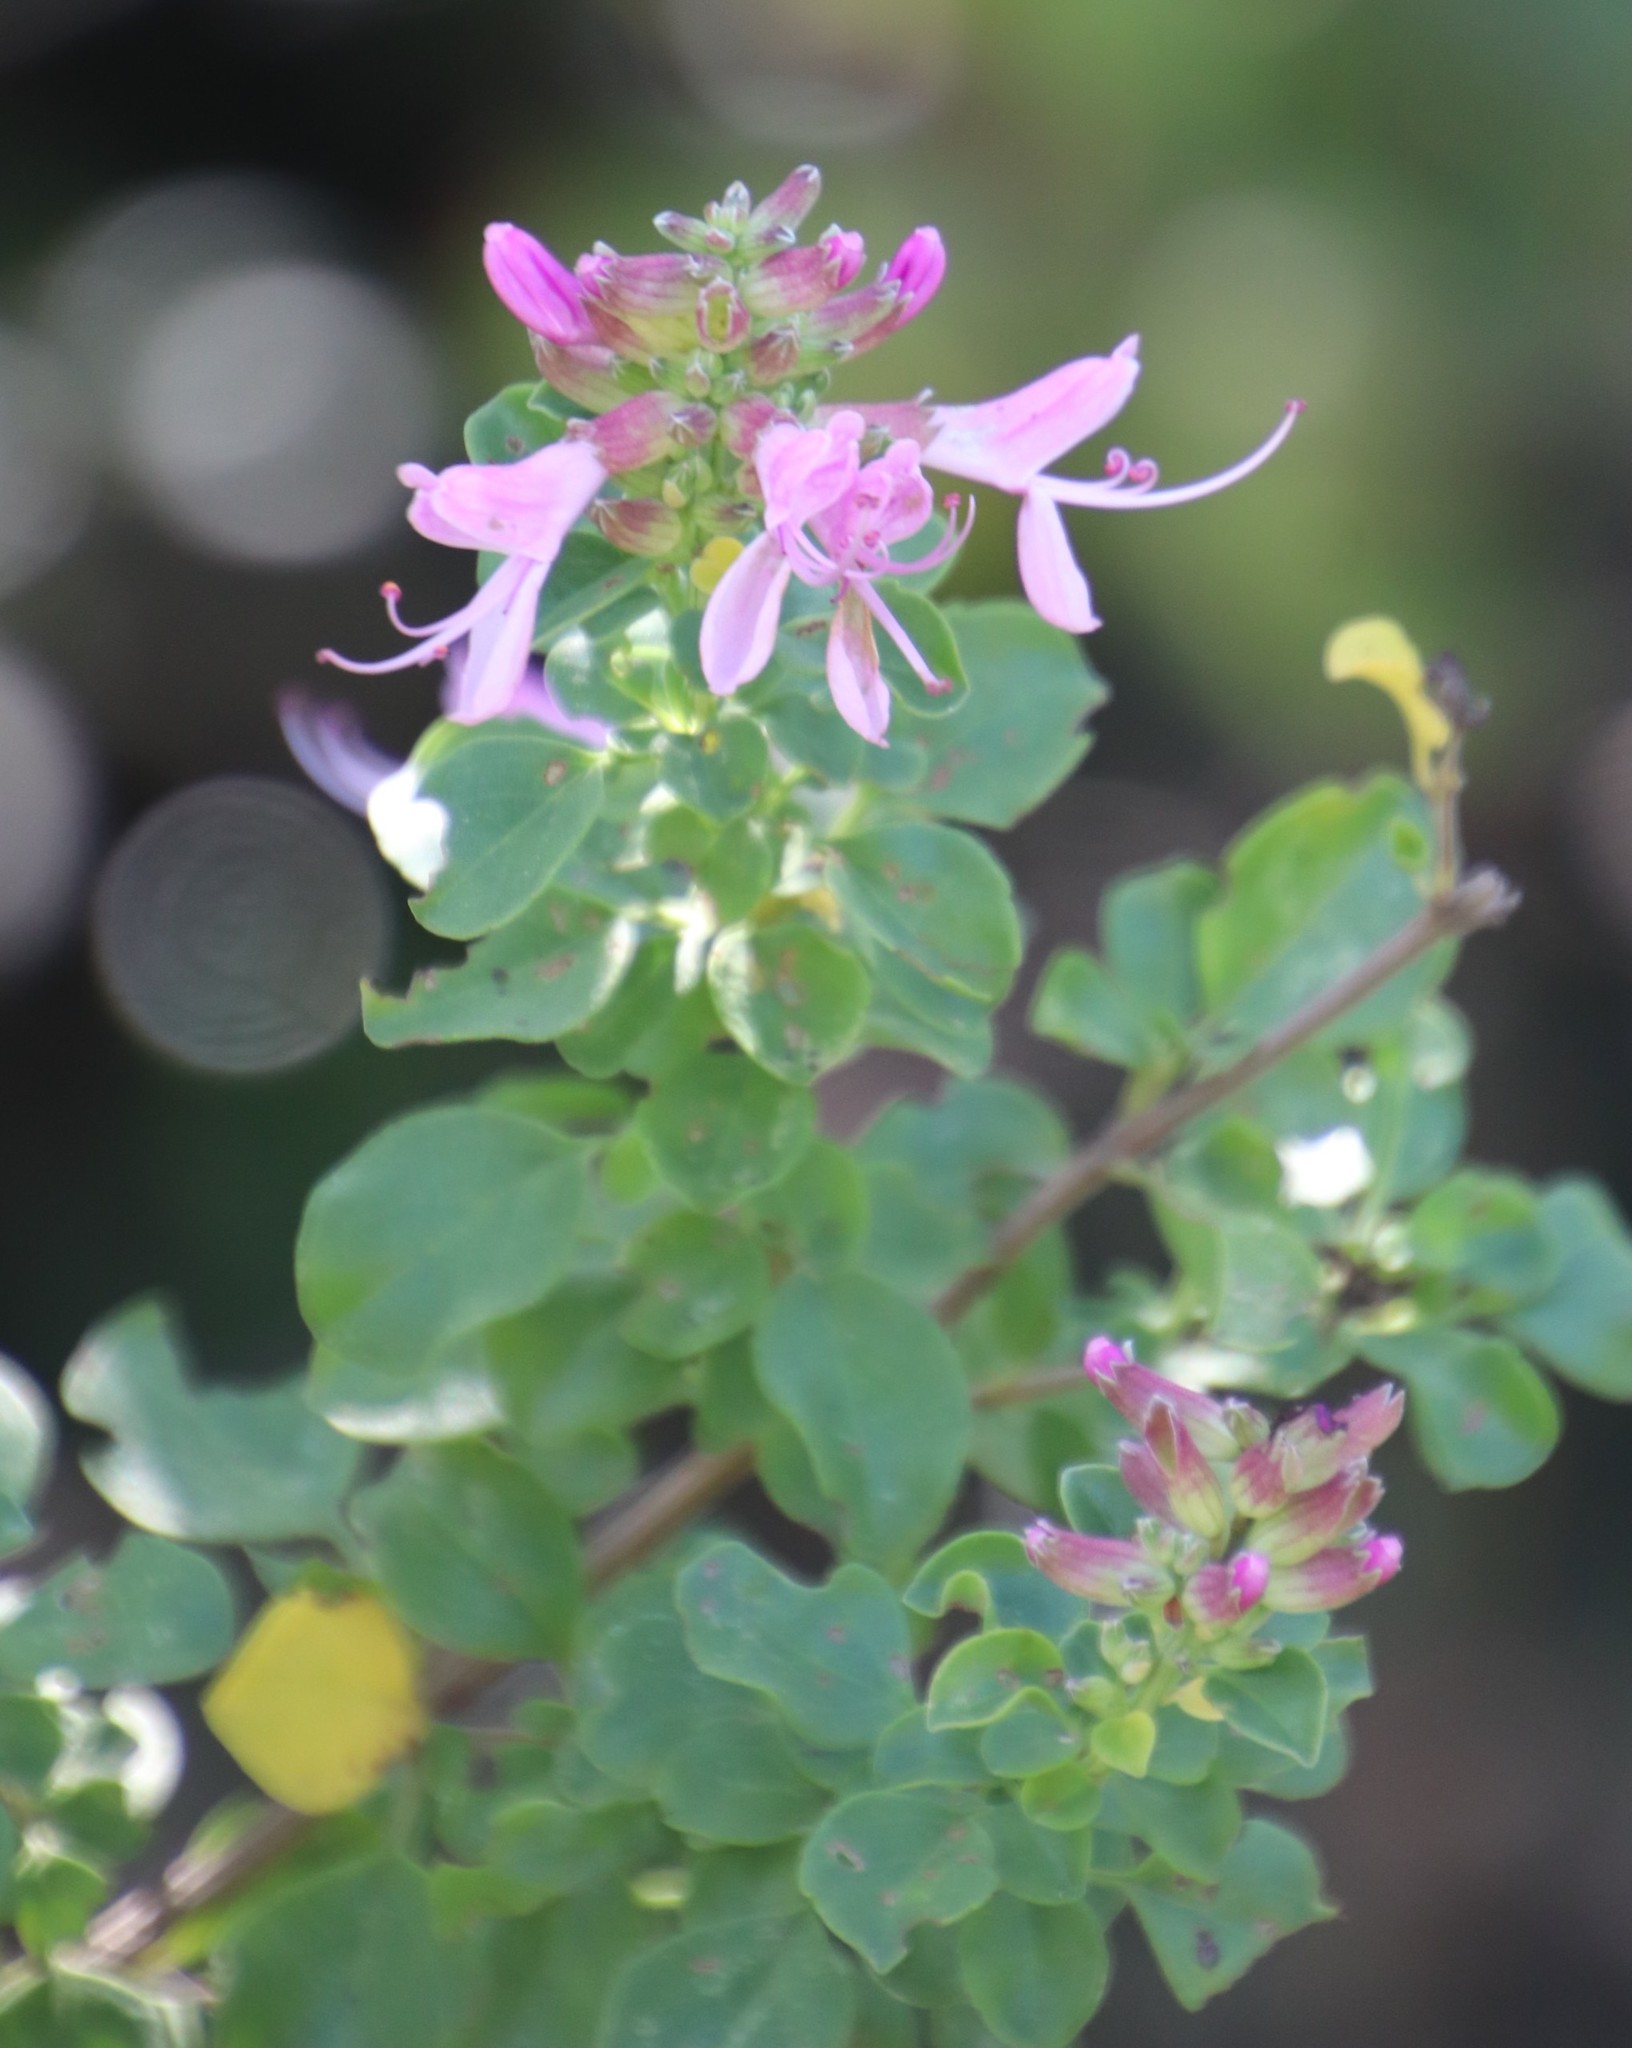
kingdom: Plantae
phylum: Tracheophyta
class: Magnoliopsida
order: Lamiales
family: Lamiaceae
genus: Syncolostemon
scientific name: Syncolostemon rotundifolius
